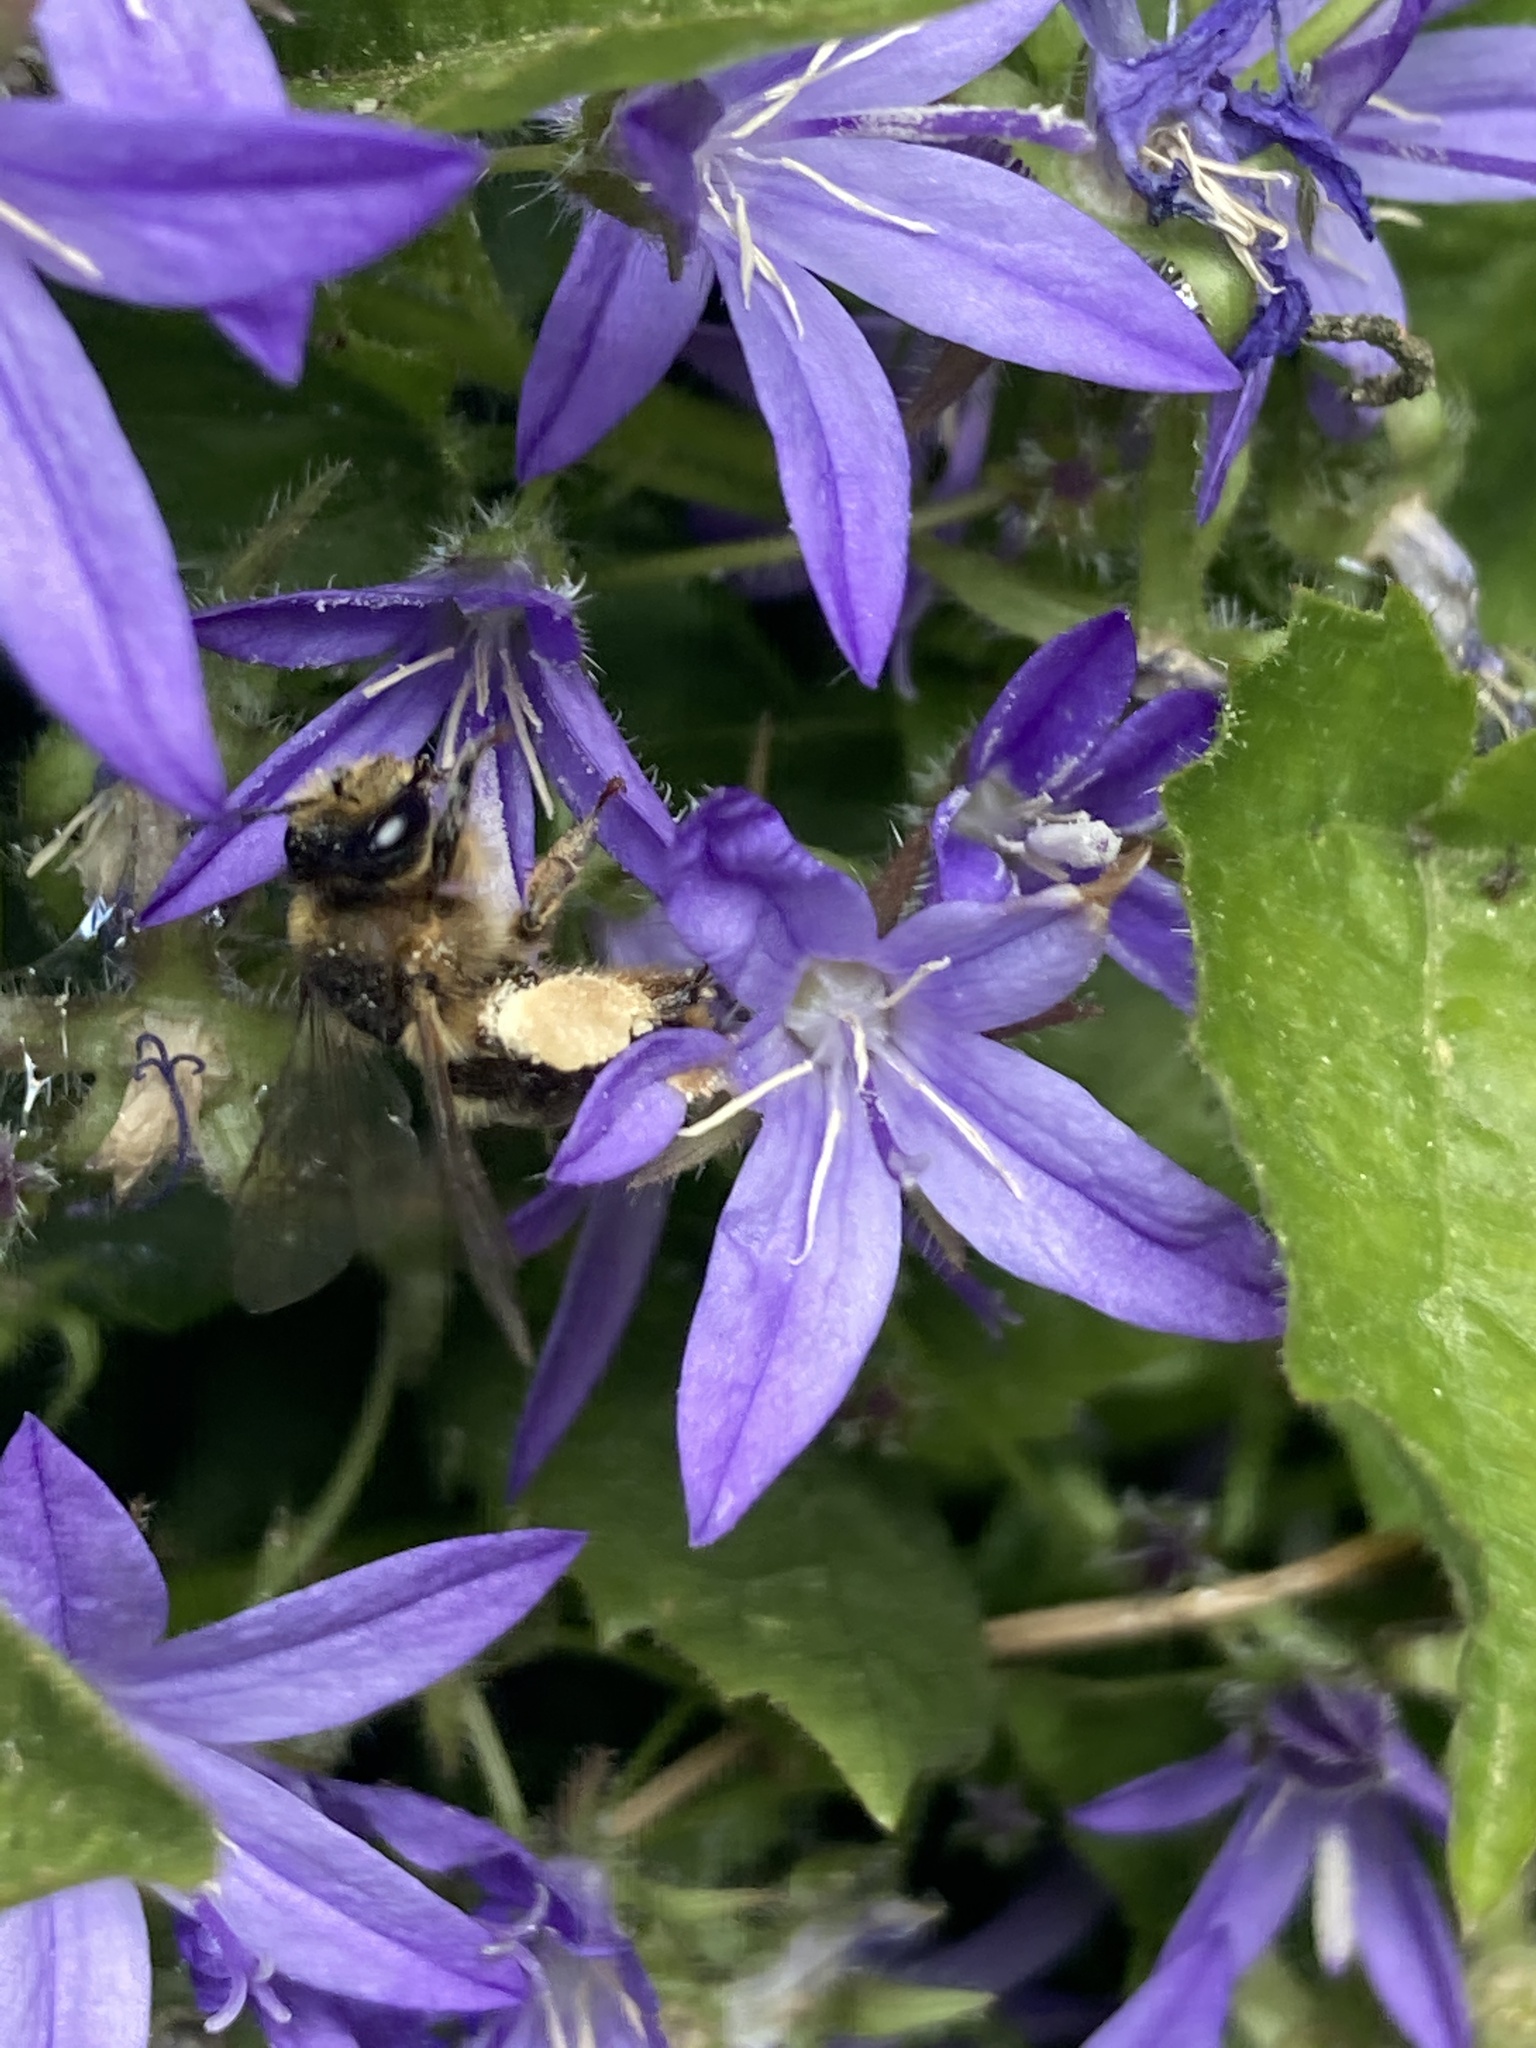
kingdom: Animalia
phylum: Arthropoda
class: Insecta
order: Hymenoptera
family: Melittidae
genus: Melitta
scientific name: Melitta haemorrhoidalis
